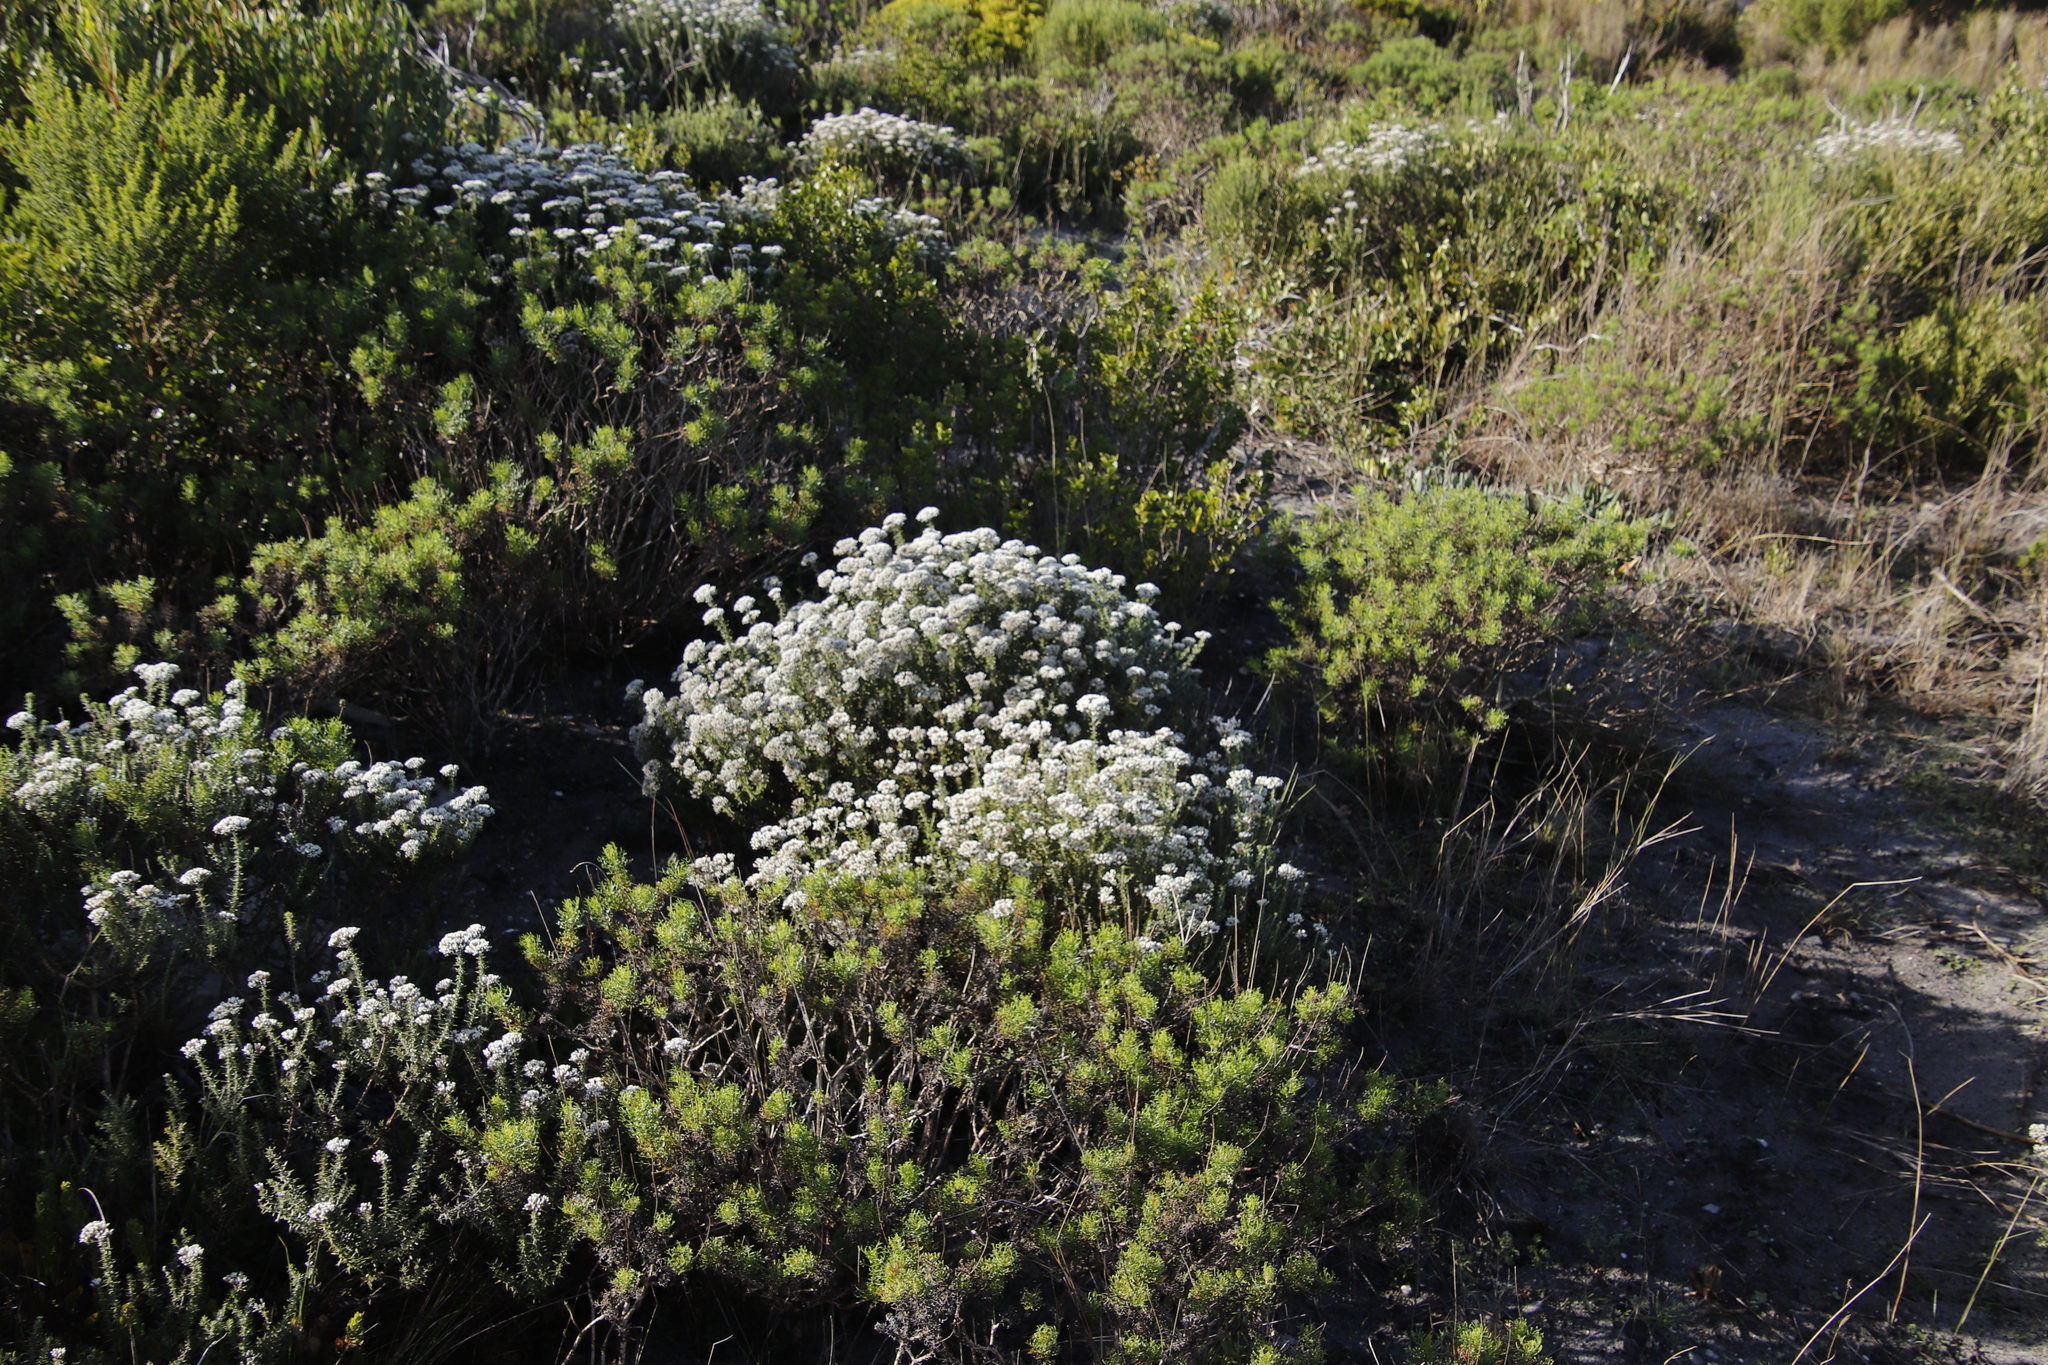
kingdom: Plantae
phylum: Tracheophyta
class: Magnoliopsida
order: Asterales
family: Asteraceae
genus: Metalasia
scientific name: Metalasia densa
